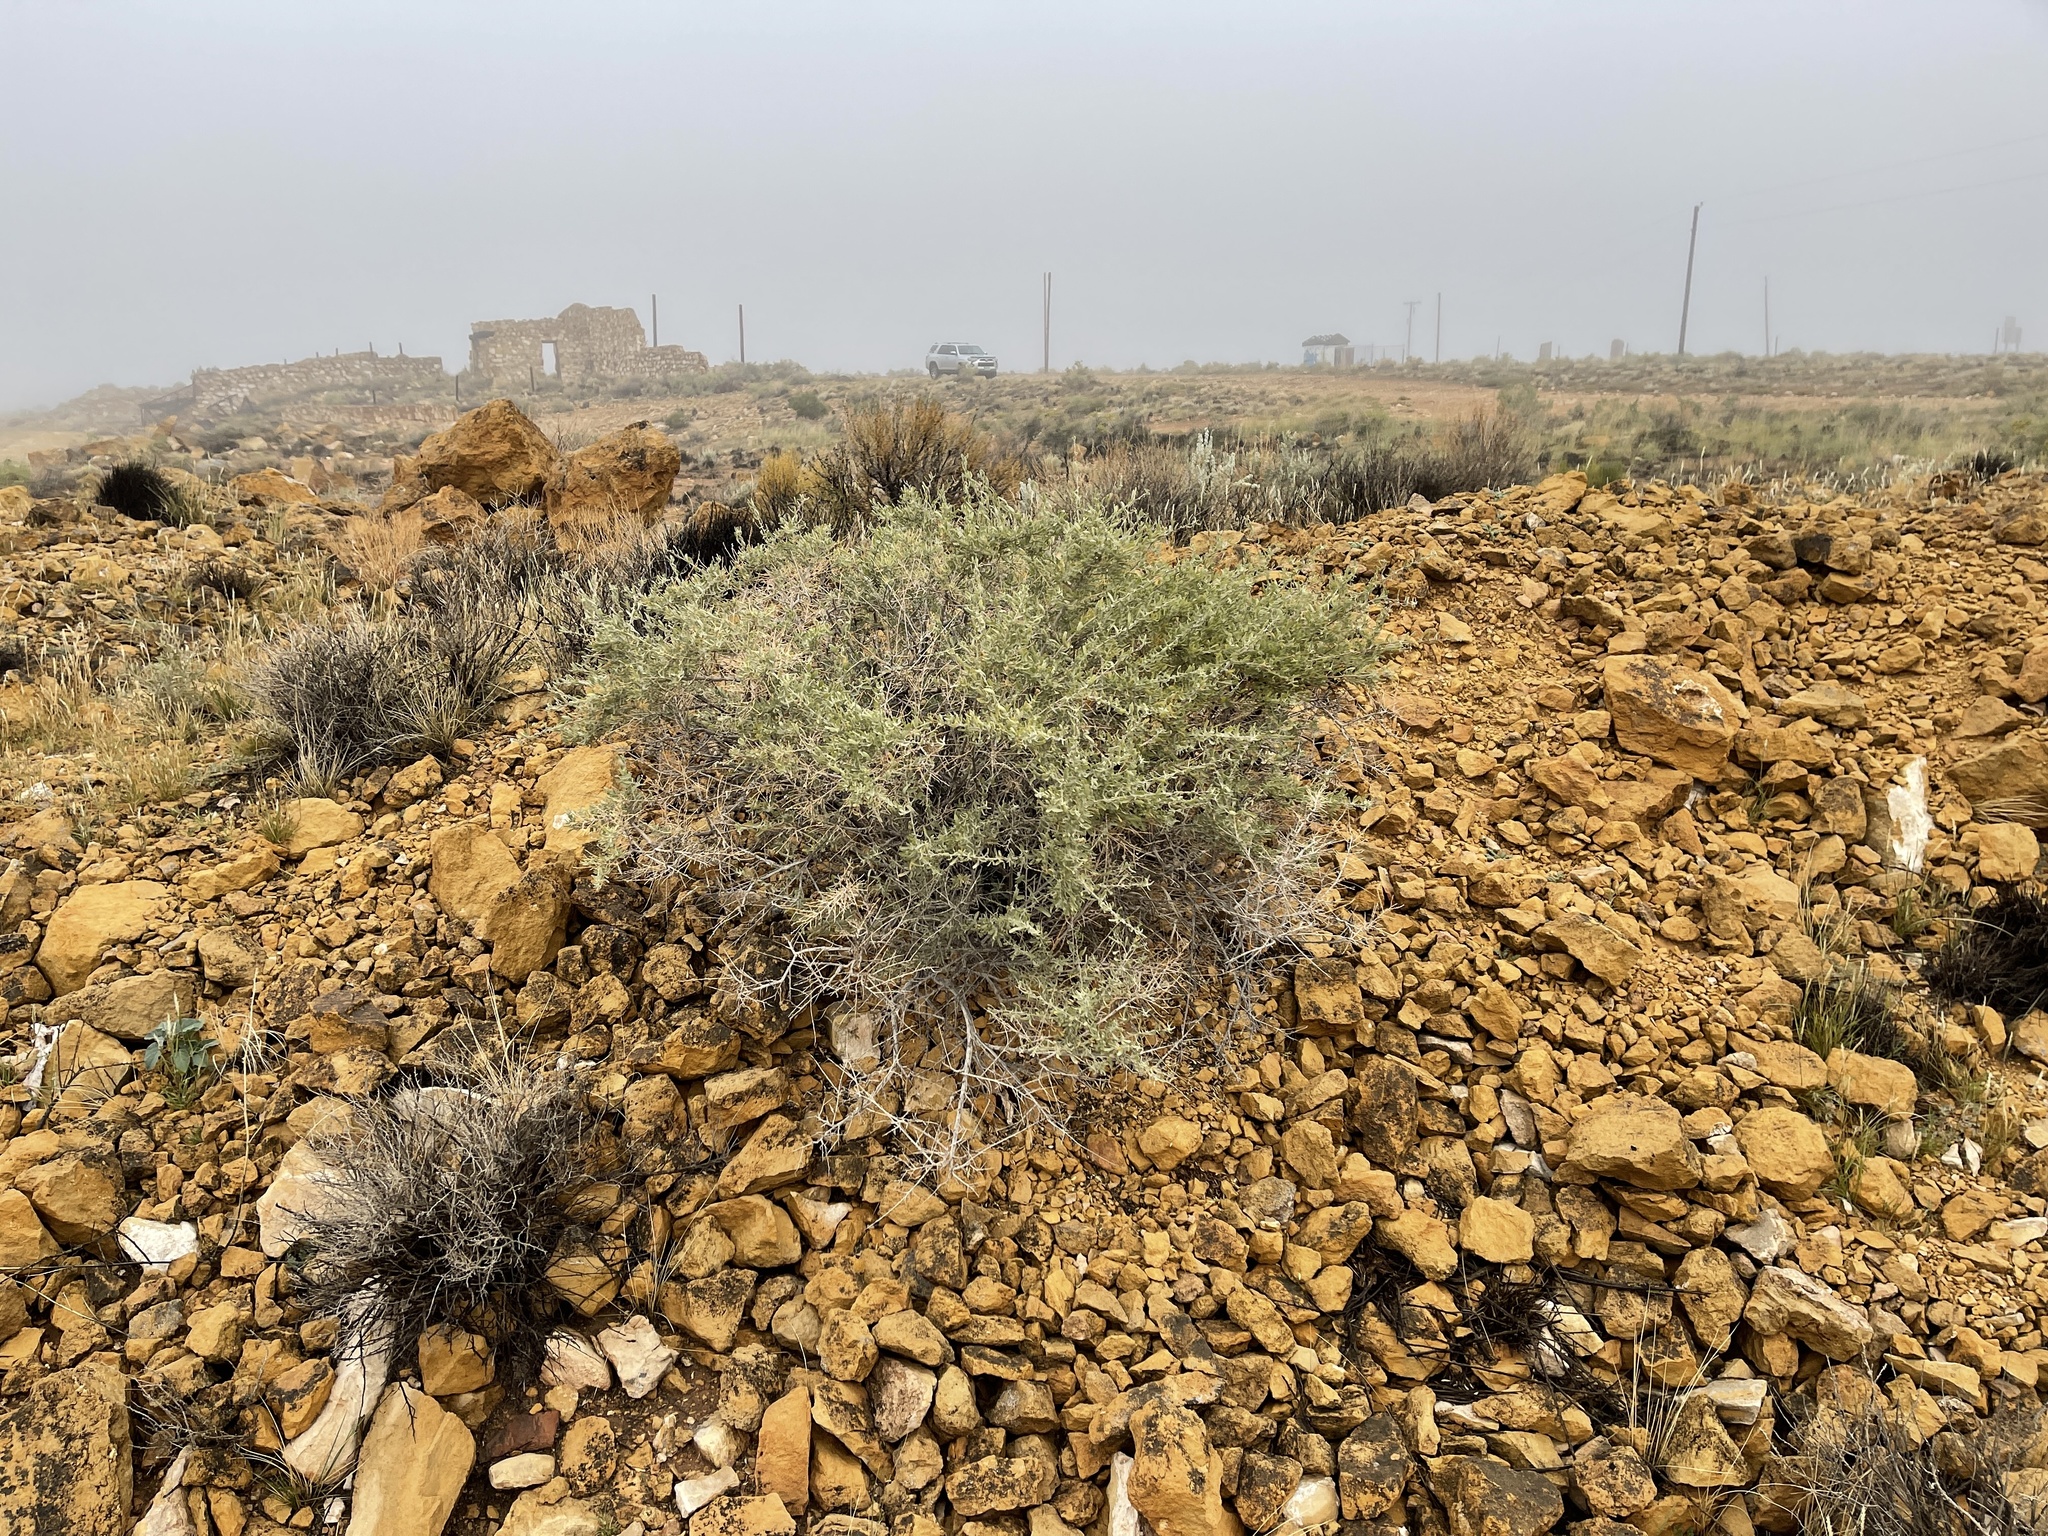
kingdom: Plantae
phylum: Tracheophyta
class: Magnoliopsida
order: Caryophyllales
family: Amaranthaceae
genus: Atriplex
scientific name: Atriplex canescens
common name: Four-wing saltbush
